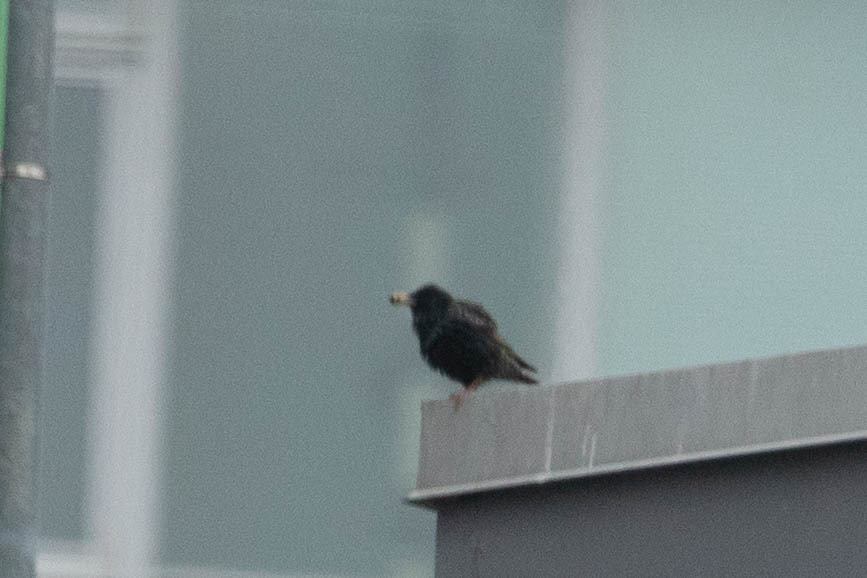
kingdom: Animalia
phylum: Chordata
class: Aves
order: Passeriformes
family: Sturnidae
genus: Sturnus
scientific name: Sturnus vulgaris
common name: Common starling
